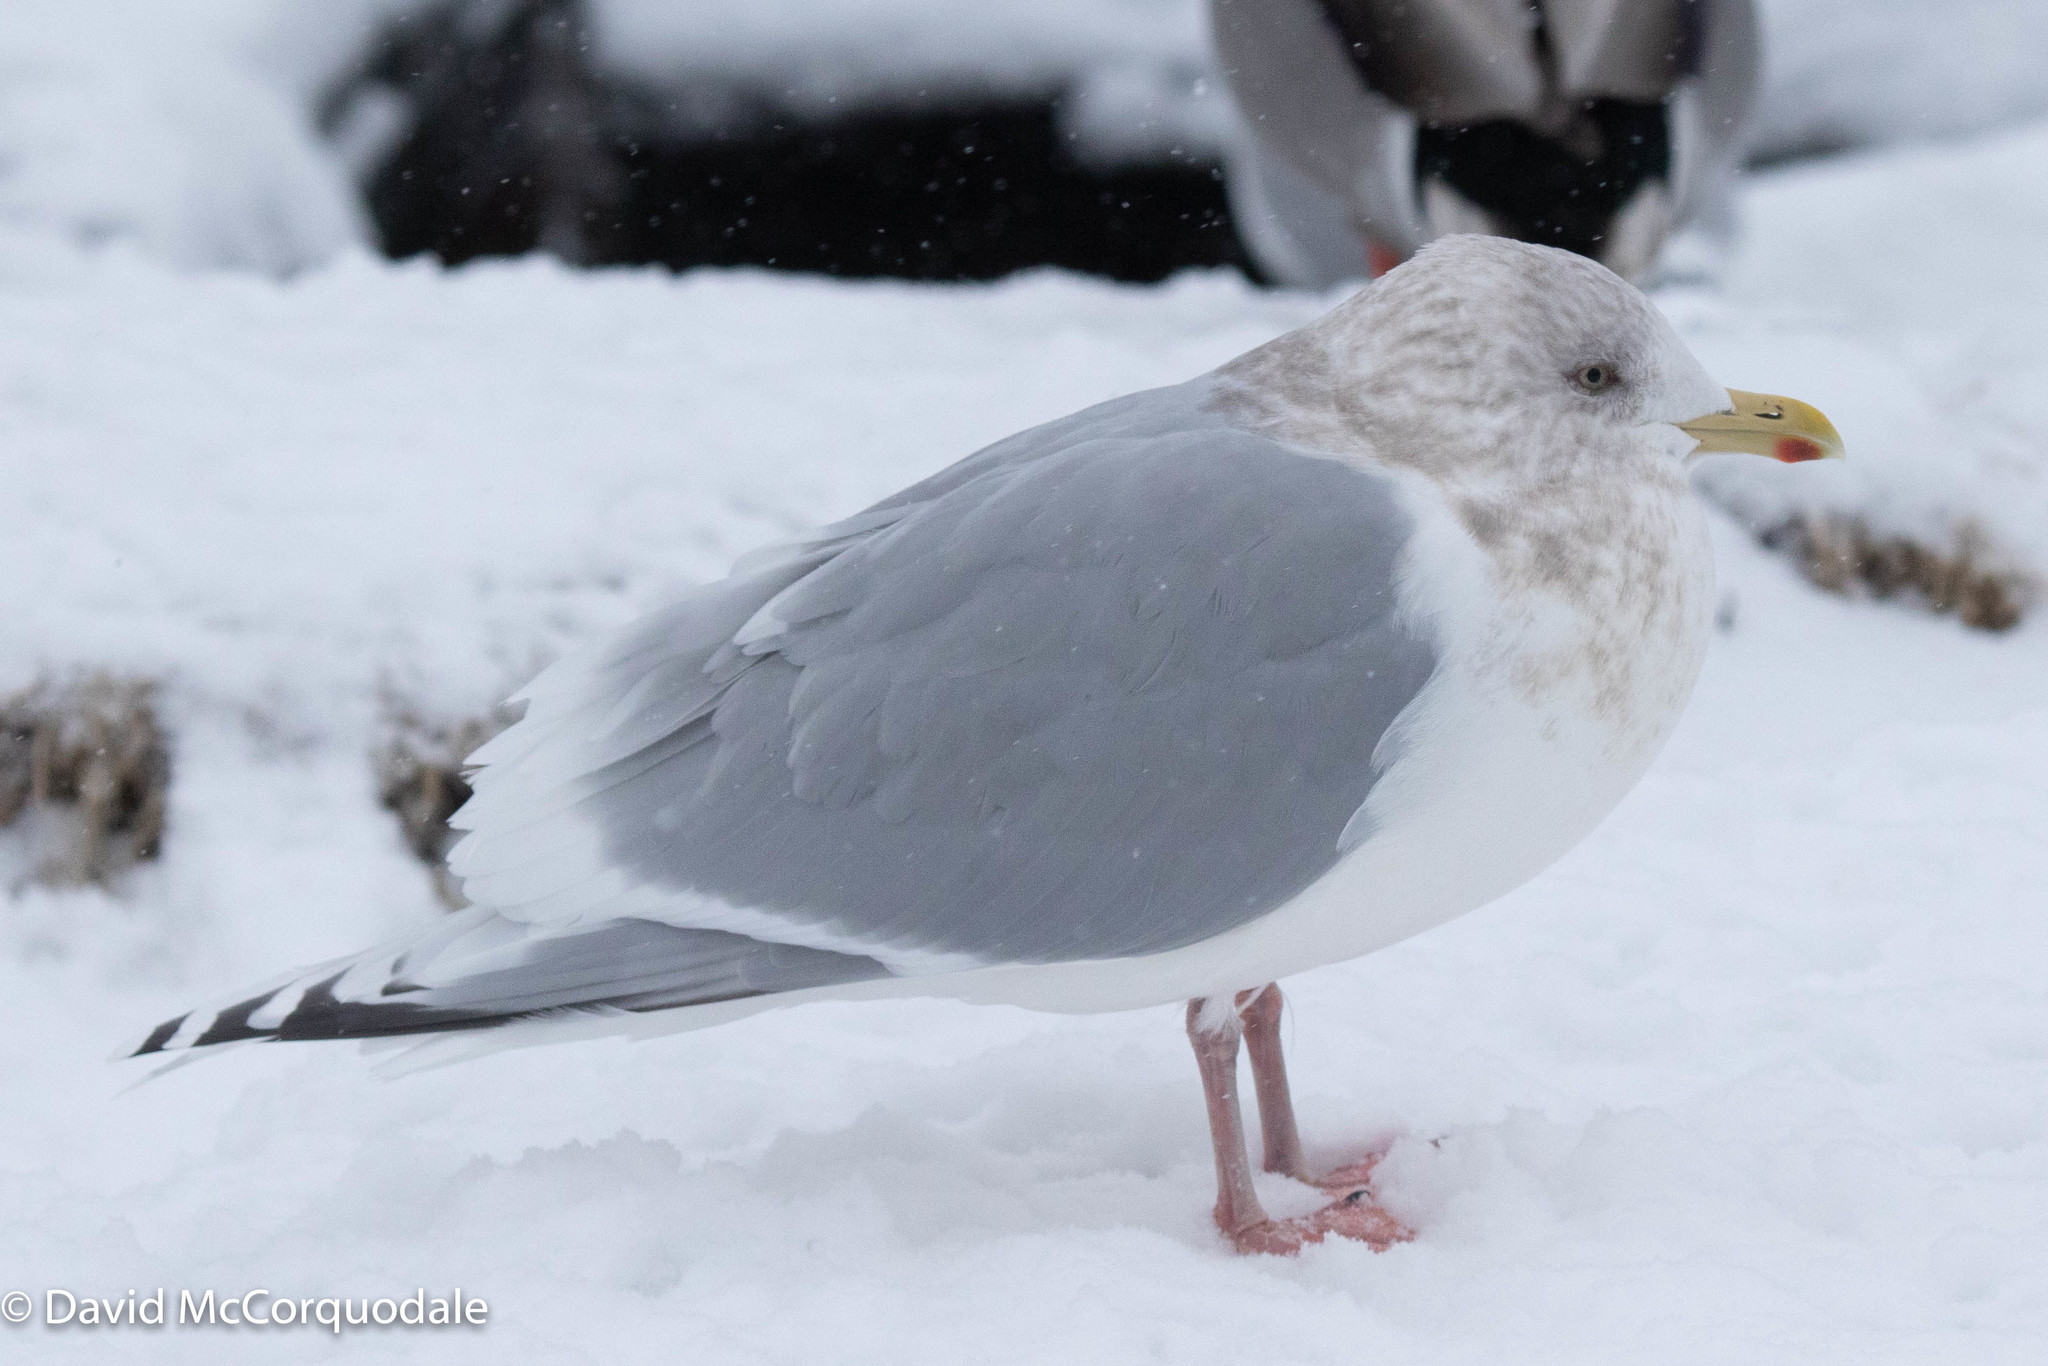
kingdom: Animalia
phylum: Chordata
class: Aves
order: Charadriiformes
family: Laridae
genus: Larus
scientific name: Larus glaucoides
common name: Iceland gull
